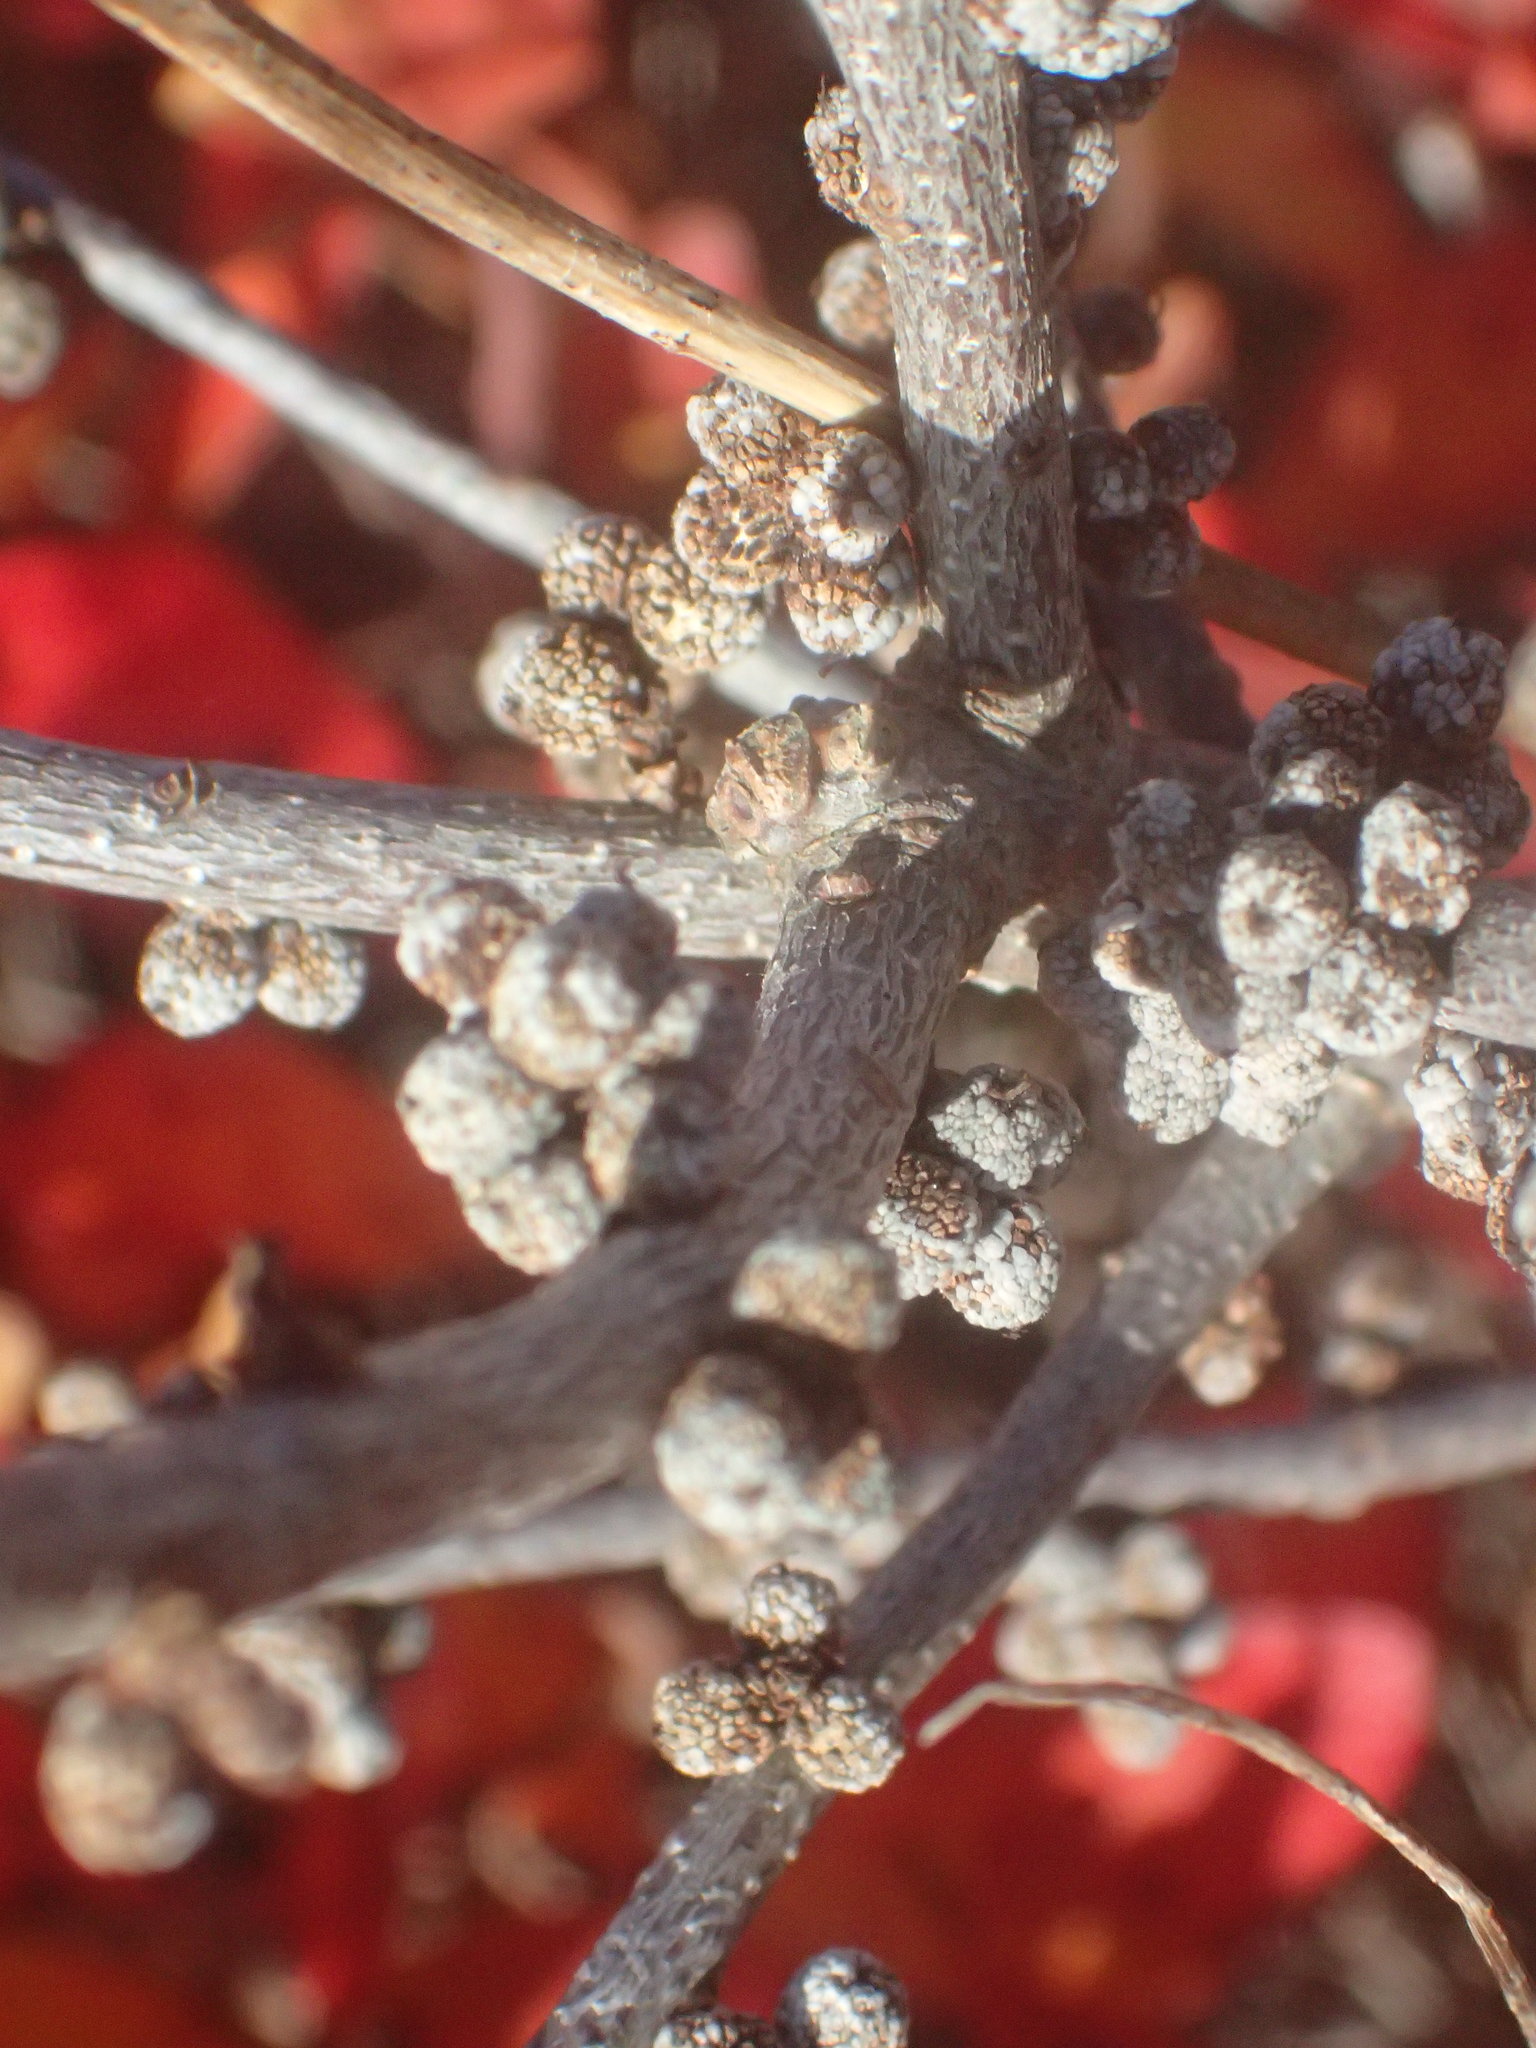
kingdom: Plantae
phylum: Tracheophyta
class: Magnoliopsida
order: Fagales
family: Myricaceae
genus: Morella
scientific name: Morella pensylvanica
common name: Northern bayberry
